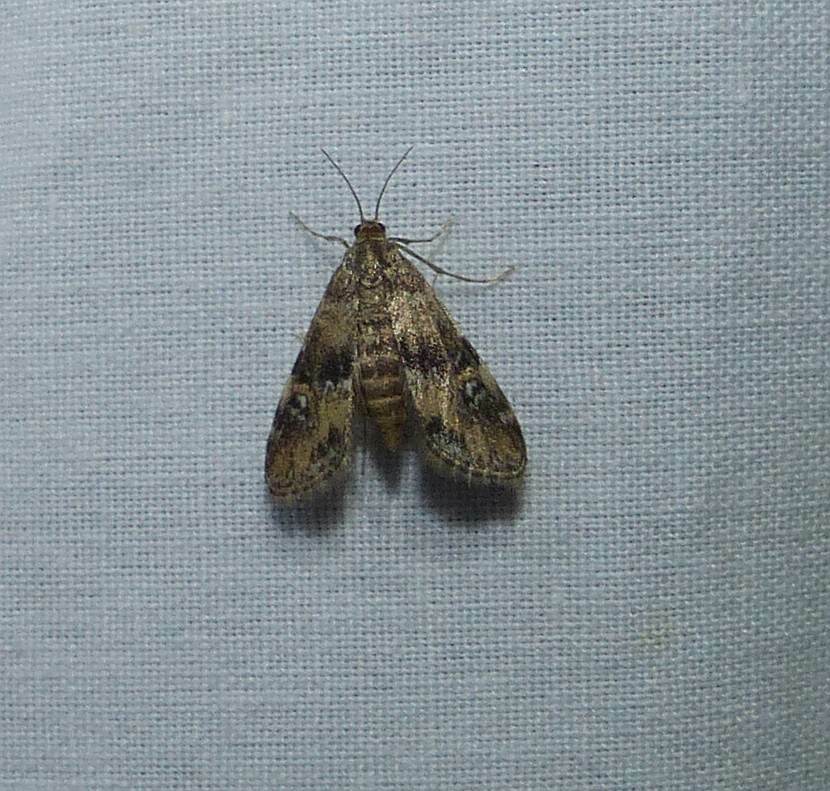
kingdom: Animalia
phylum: Arthropoda
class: Insecta
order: Lepidoptera
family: Crambidae
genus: Elophila
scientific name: Elophila obliteralis
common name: Waterlily leafcutter moth
